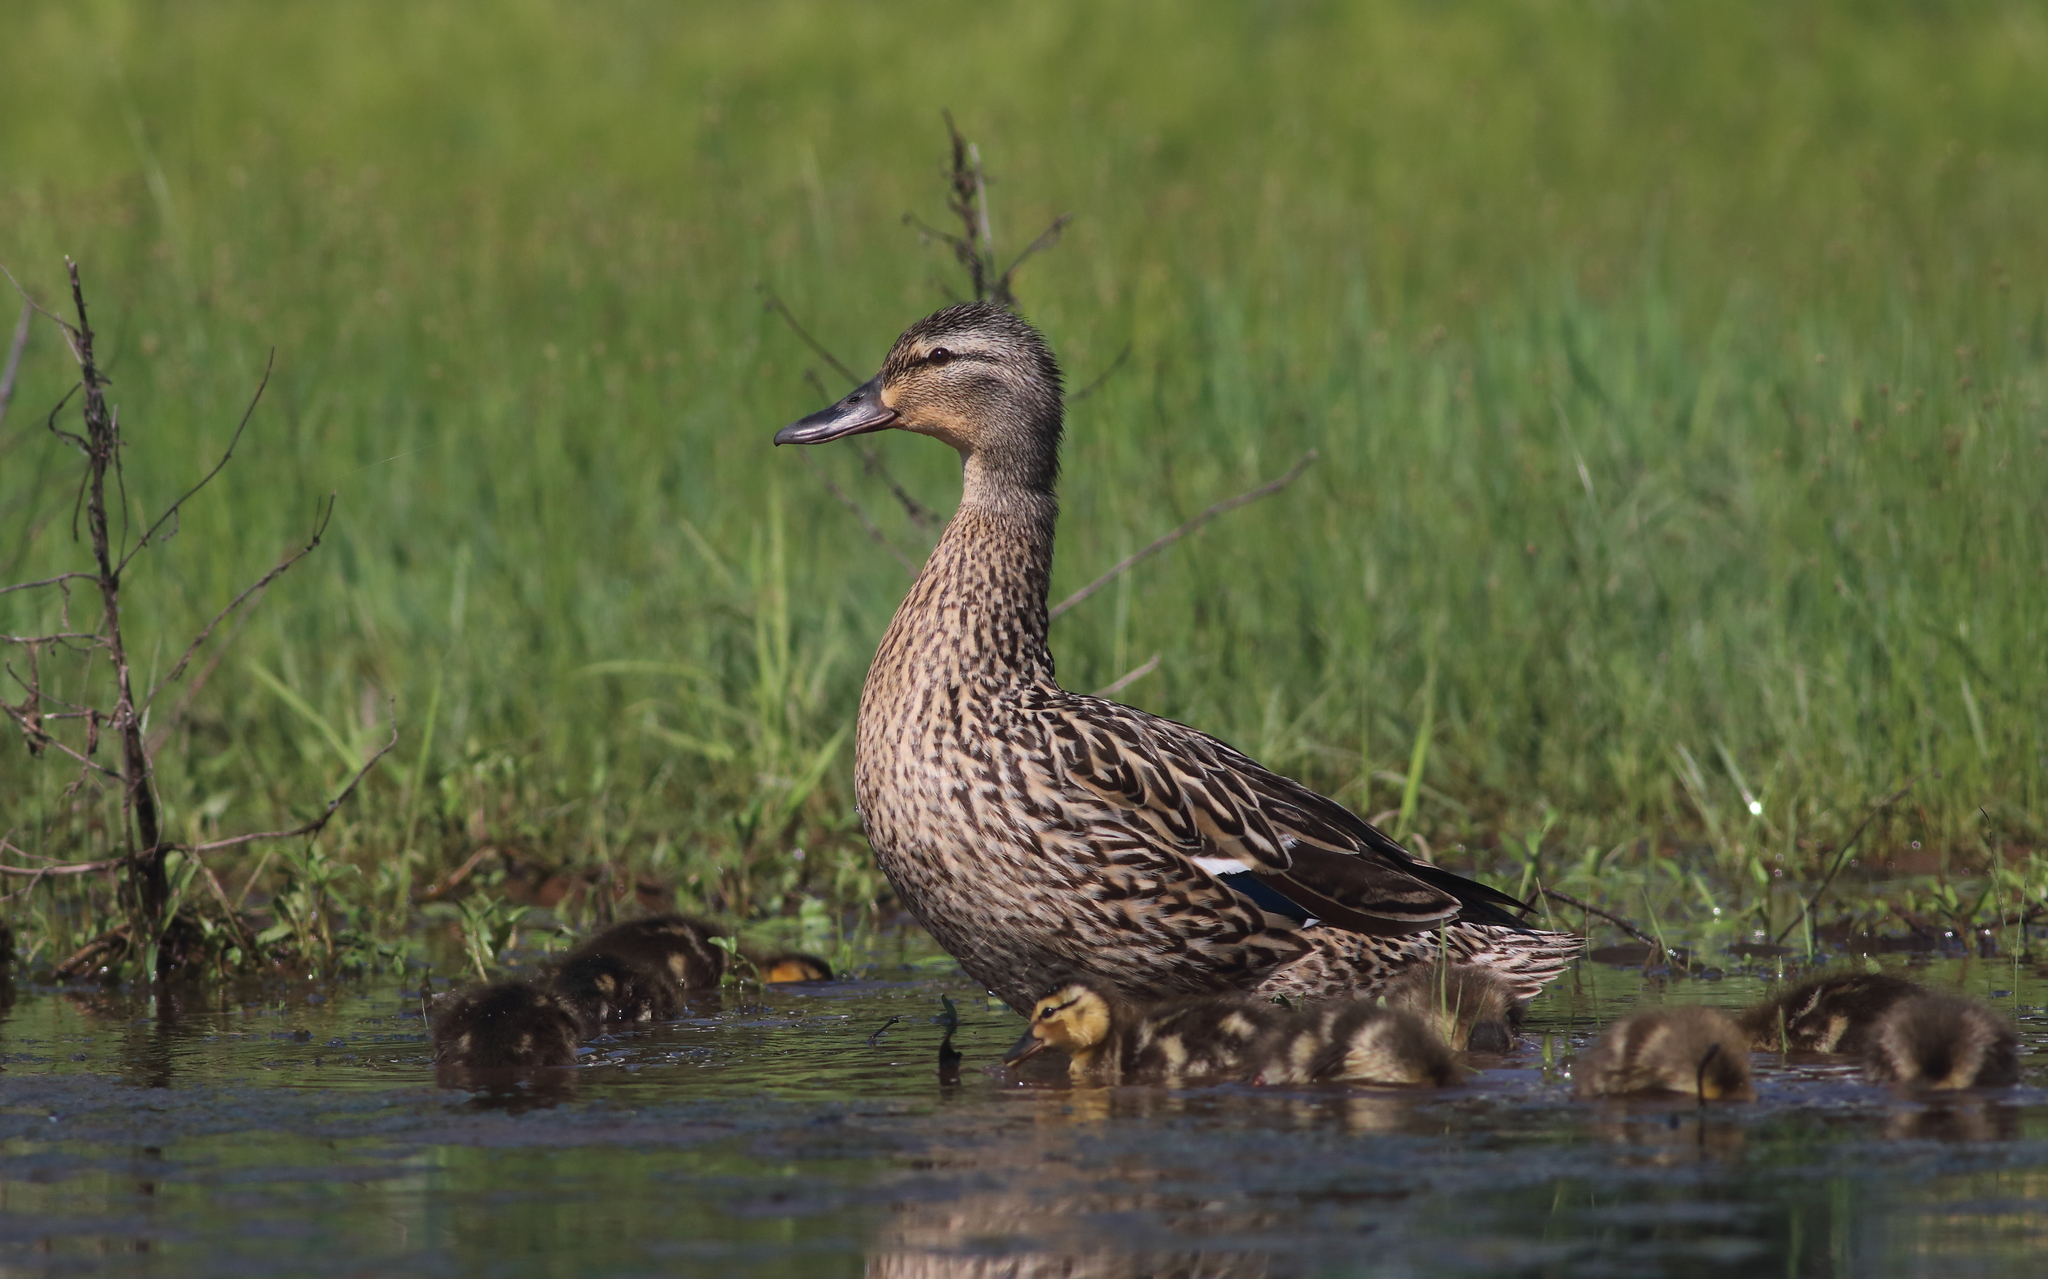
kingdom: Animalia
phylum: Chordata
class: Aves
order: Anseriformes
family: Anatidae
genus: Anas
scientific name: Anas platyrhynchos
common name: Mallard
